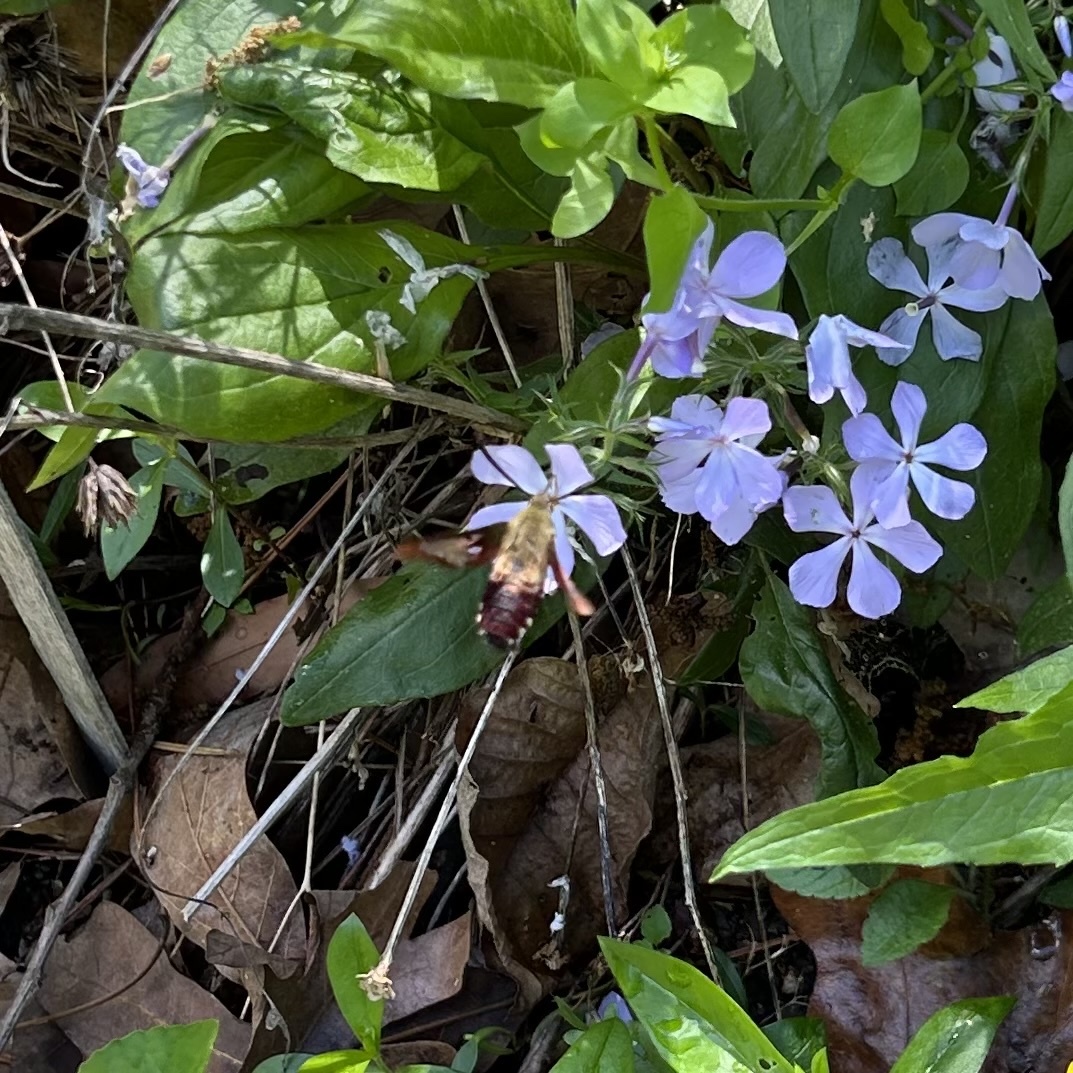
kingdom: Animalia
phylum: Arthropoda
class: Insecta
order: Lepidoptera
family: Sphingidae
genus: Hemaris
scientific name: Hemaris thysbe
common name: Common clear-wing
